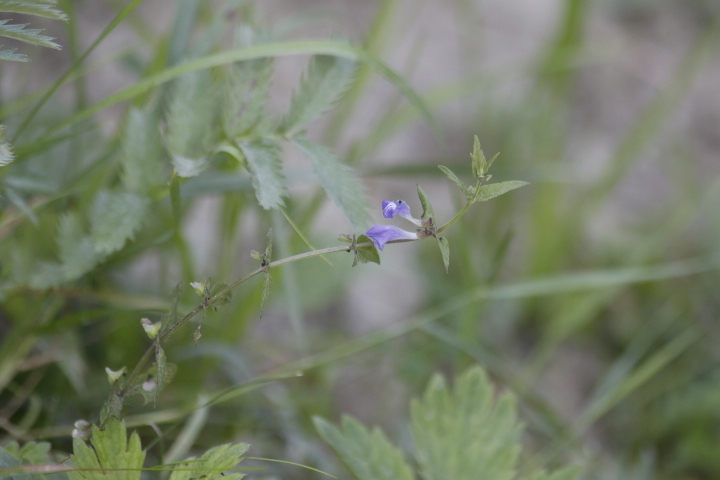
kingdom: Plantae
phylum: Tracheophyta
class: Magnoliopsida
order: Lamiales
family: Lamiaceae
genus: Scutellaria
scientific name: Scutellaria galericulata
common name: Skullcap
